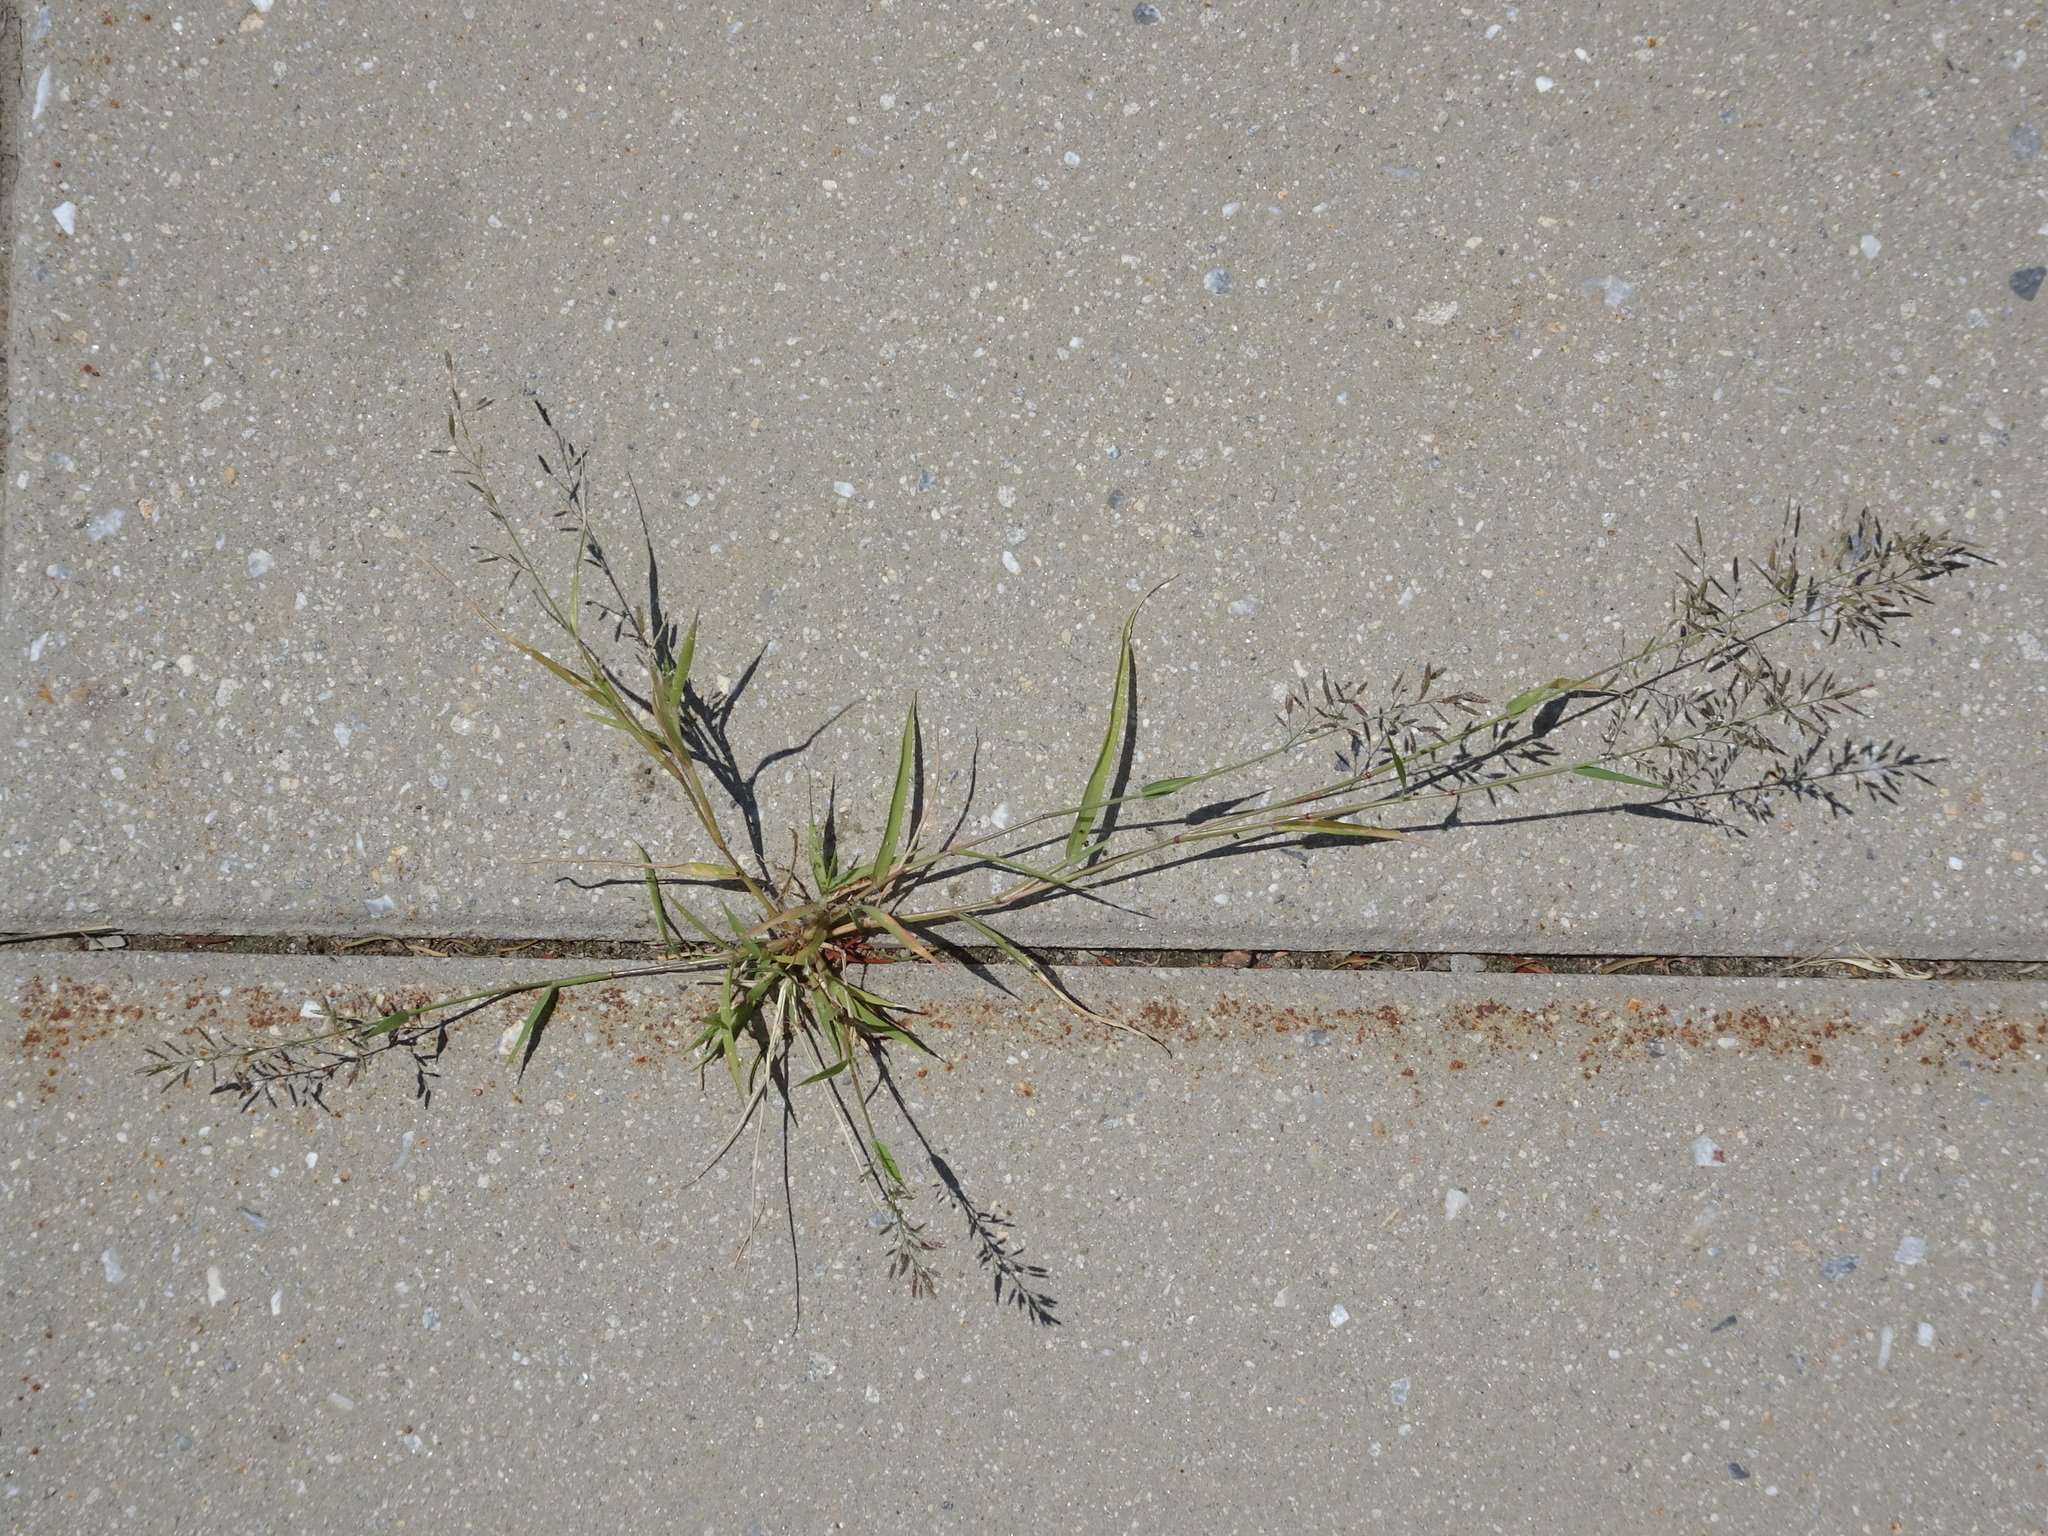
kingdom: Plantae
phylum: Tracheophyta
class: Liliopsida
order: Poales
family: Poaceae
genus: Eragrostis
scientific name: Eragrostis cilianensis
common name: Stinkgrass
